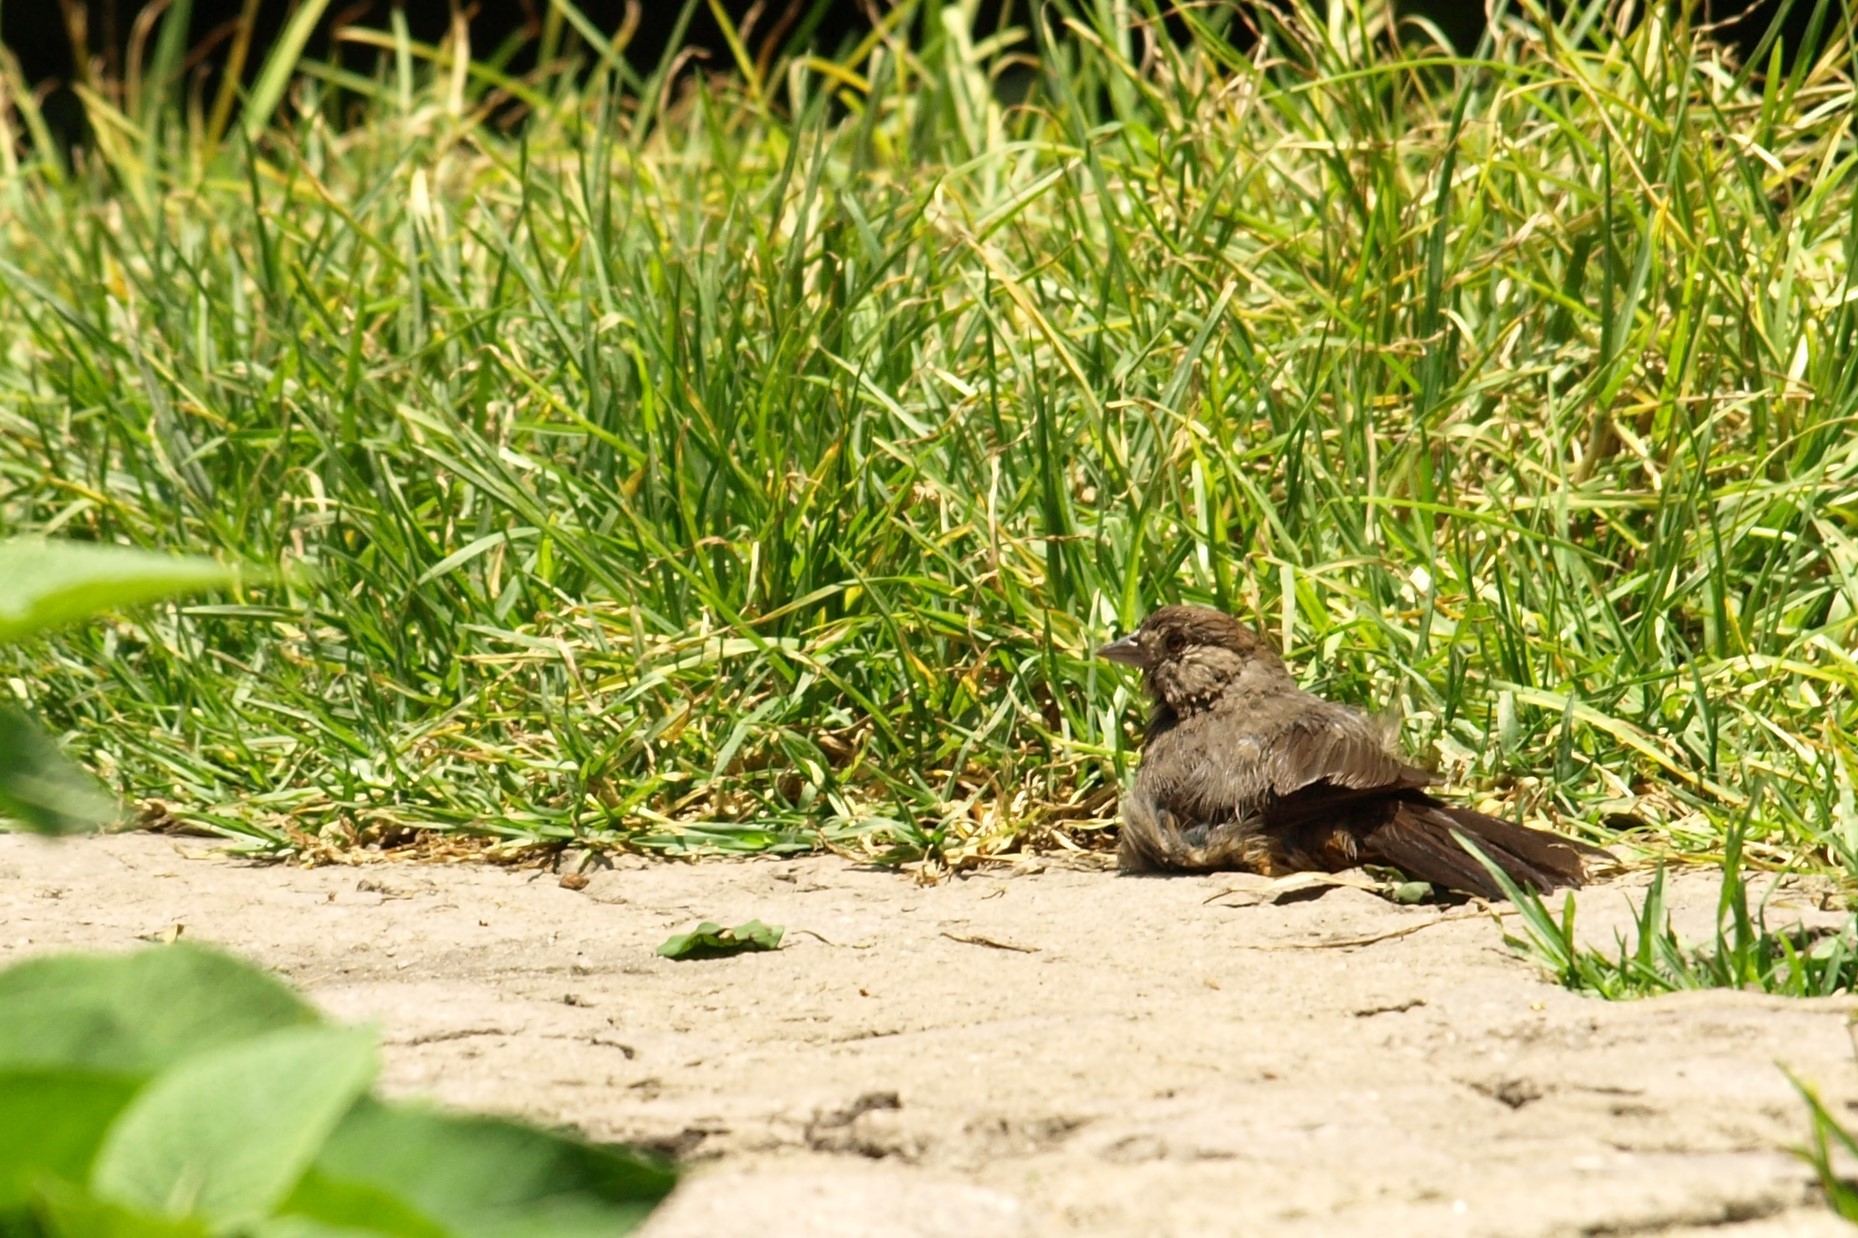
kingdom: Animalia
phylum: Chordata
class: Aves
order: Passeriformes
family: Passerellidae
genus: Melozone
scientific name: Melozone fusca
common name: Canyon towhee
